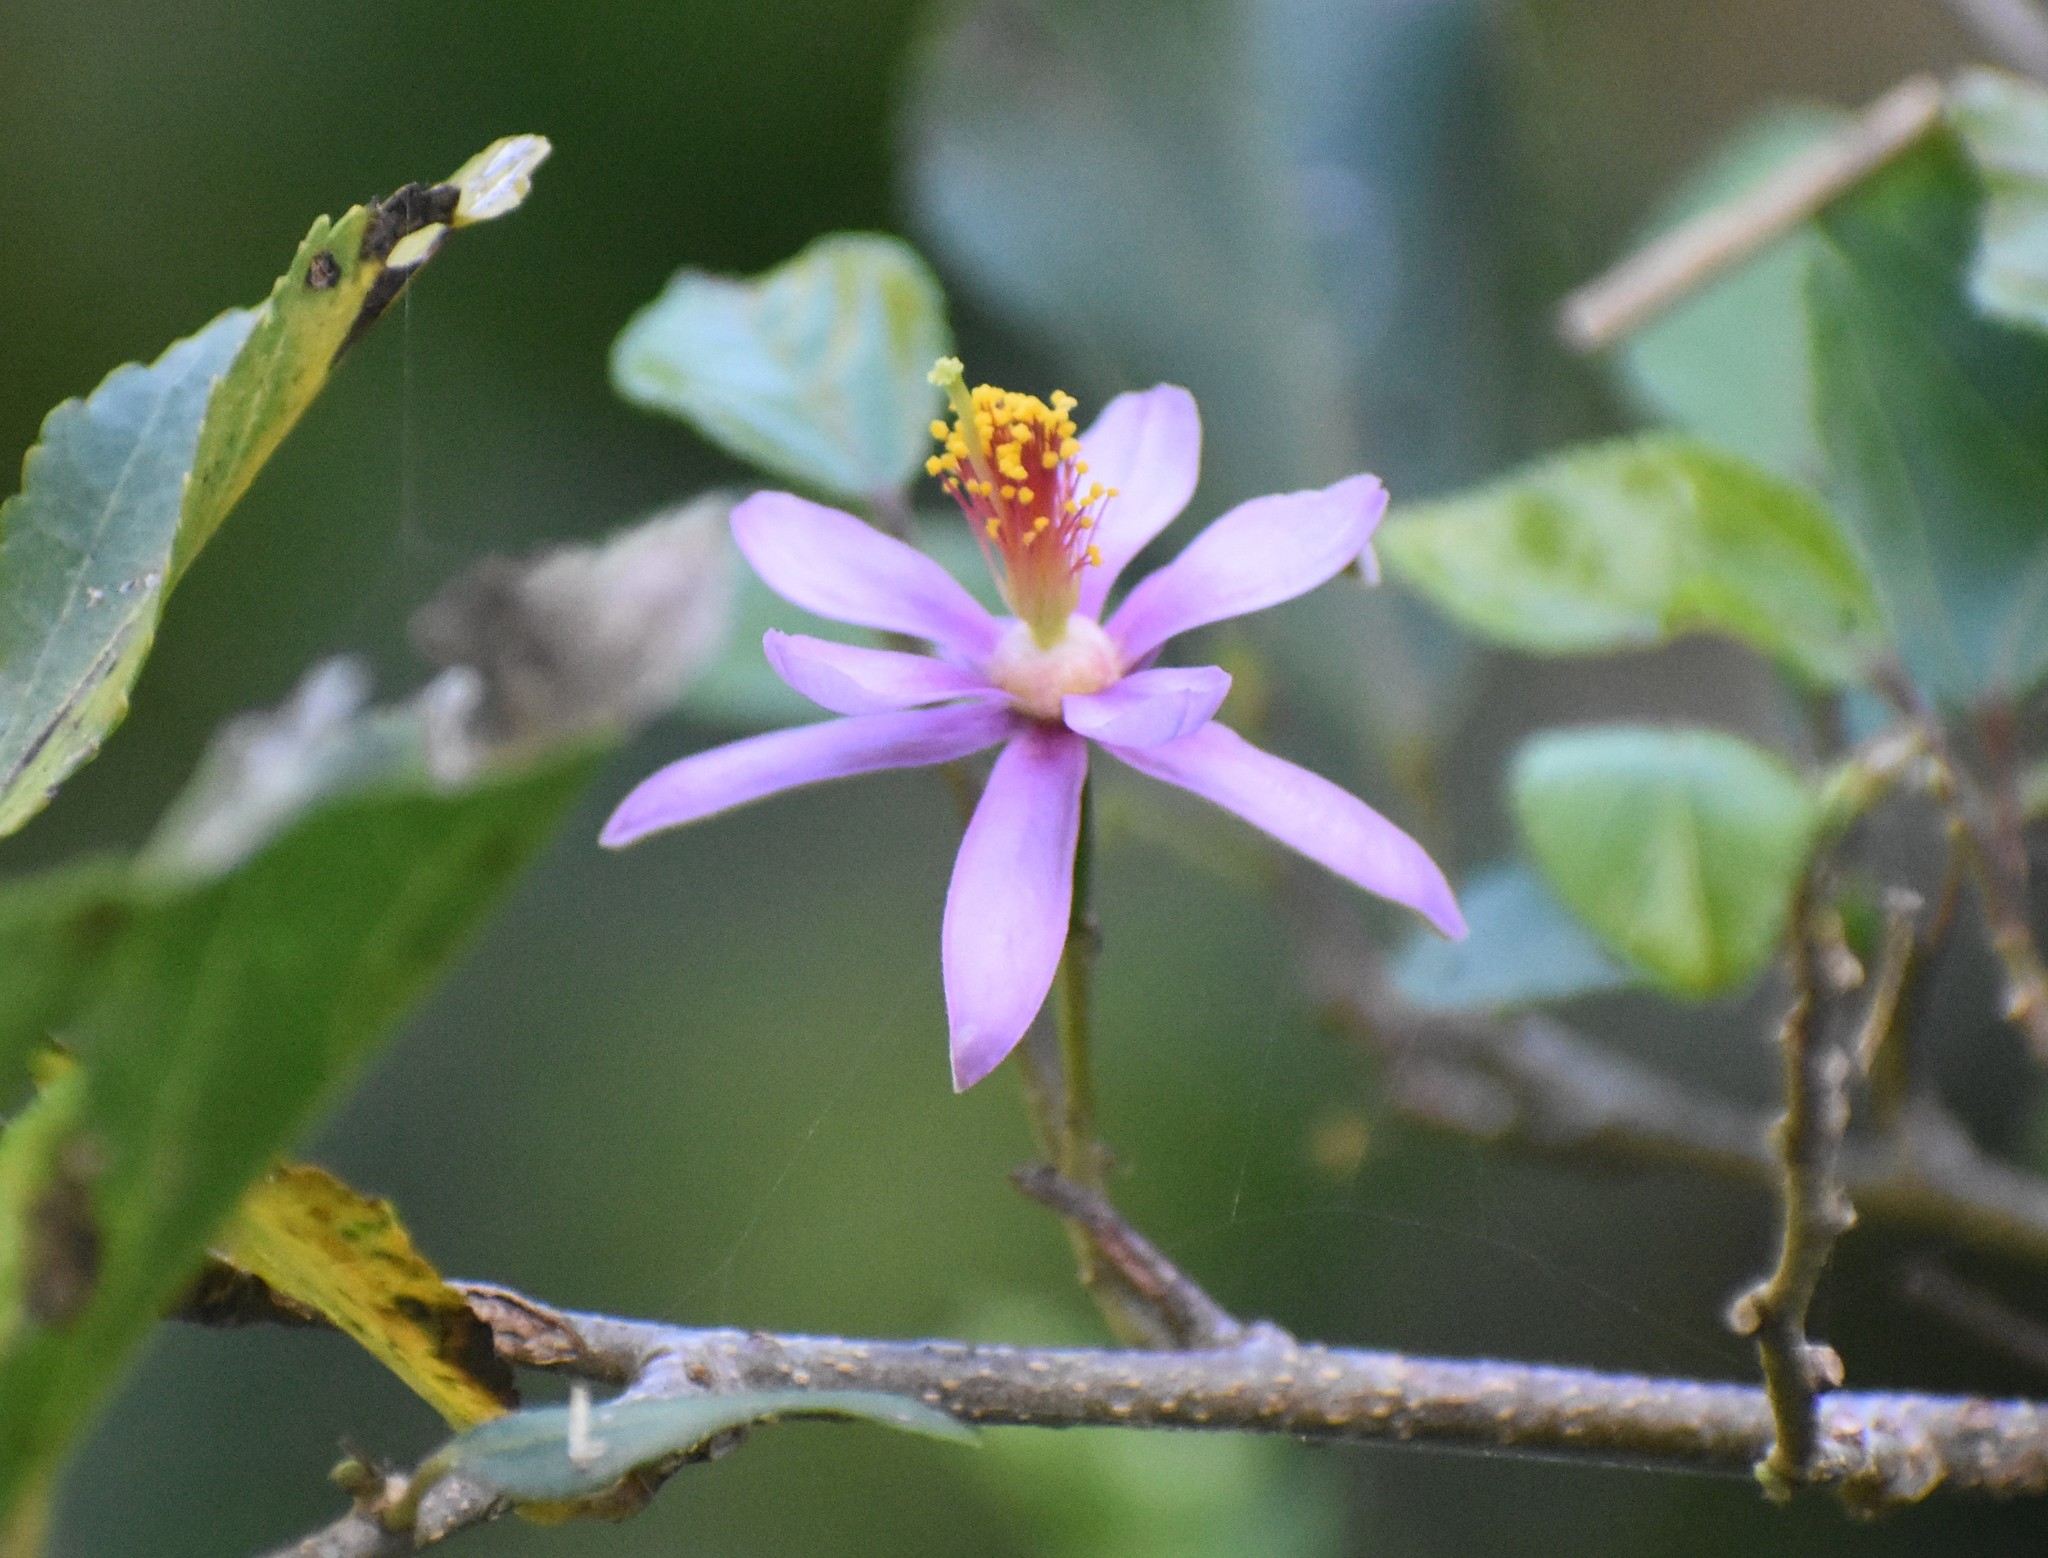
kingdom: Plantae
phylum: Tracheophyta
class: Magnoliopsida
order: Malvales
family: Malvaceae
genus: Grewia
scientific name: Grewia occidentalis
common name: Crossberry
